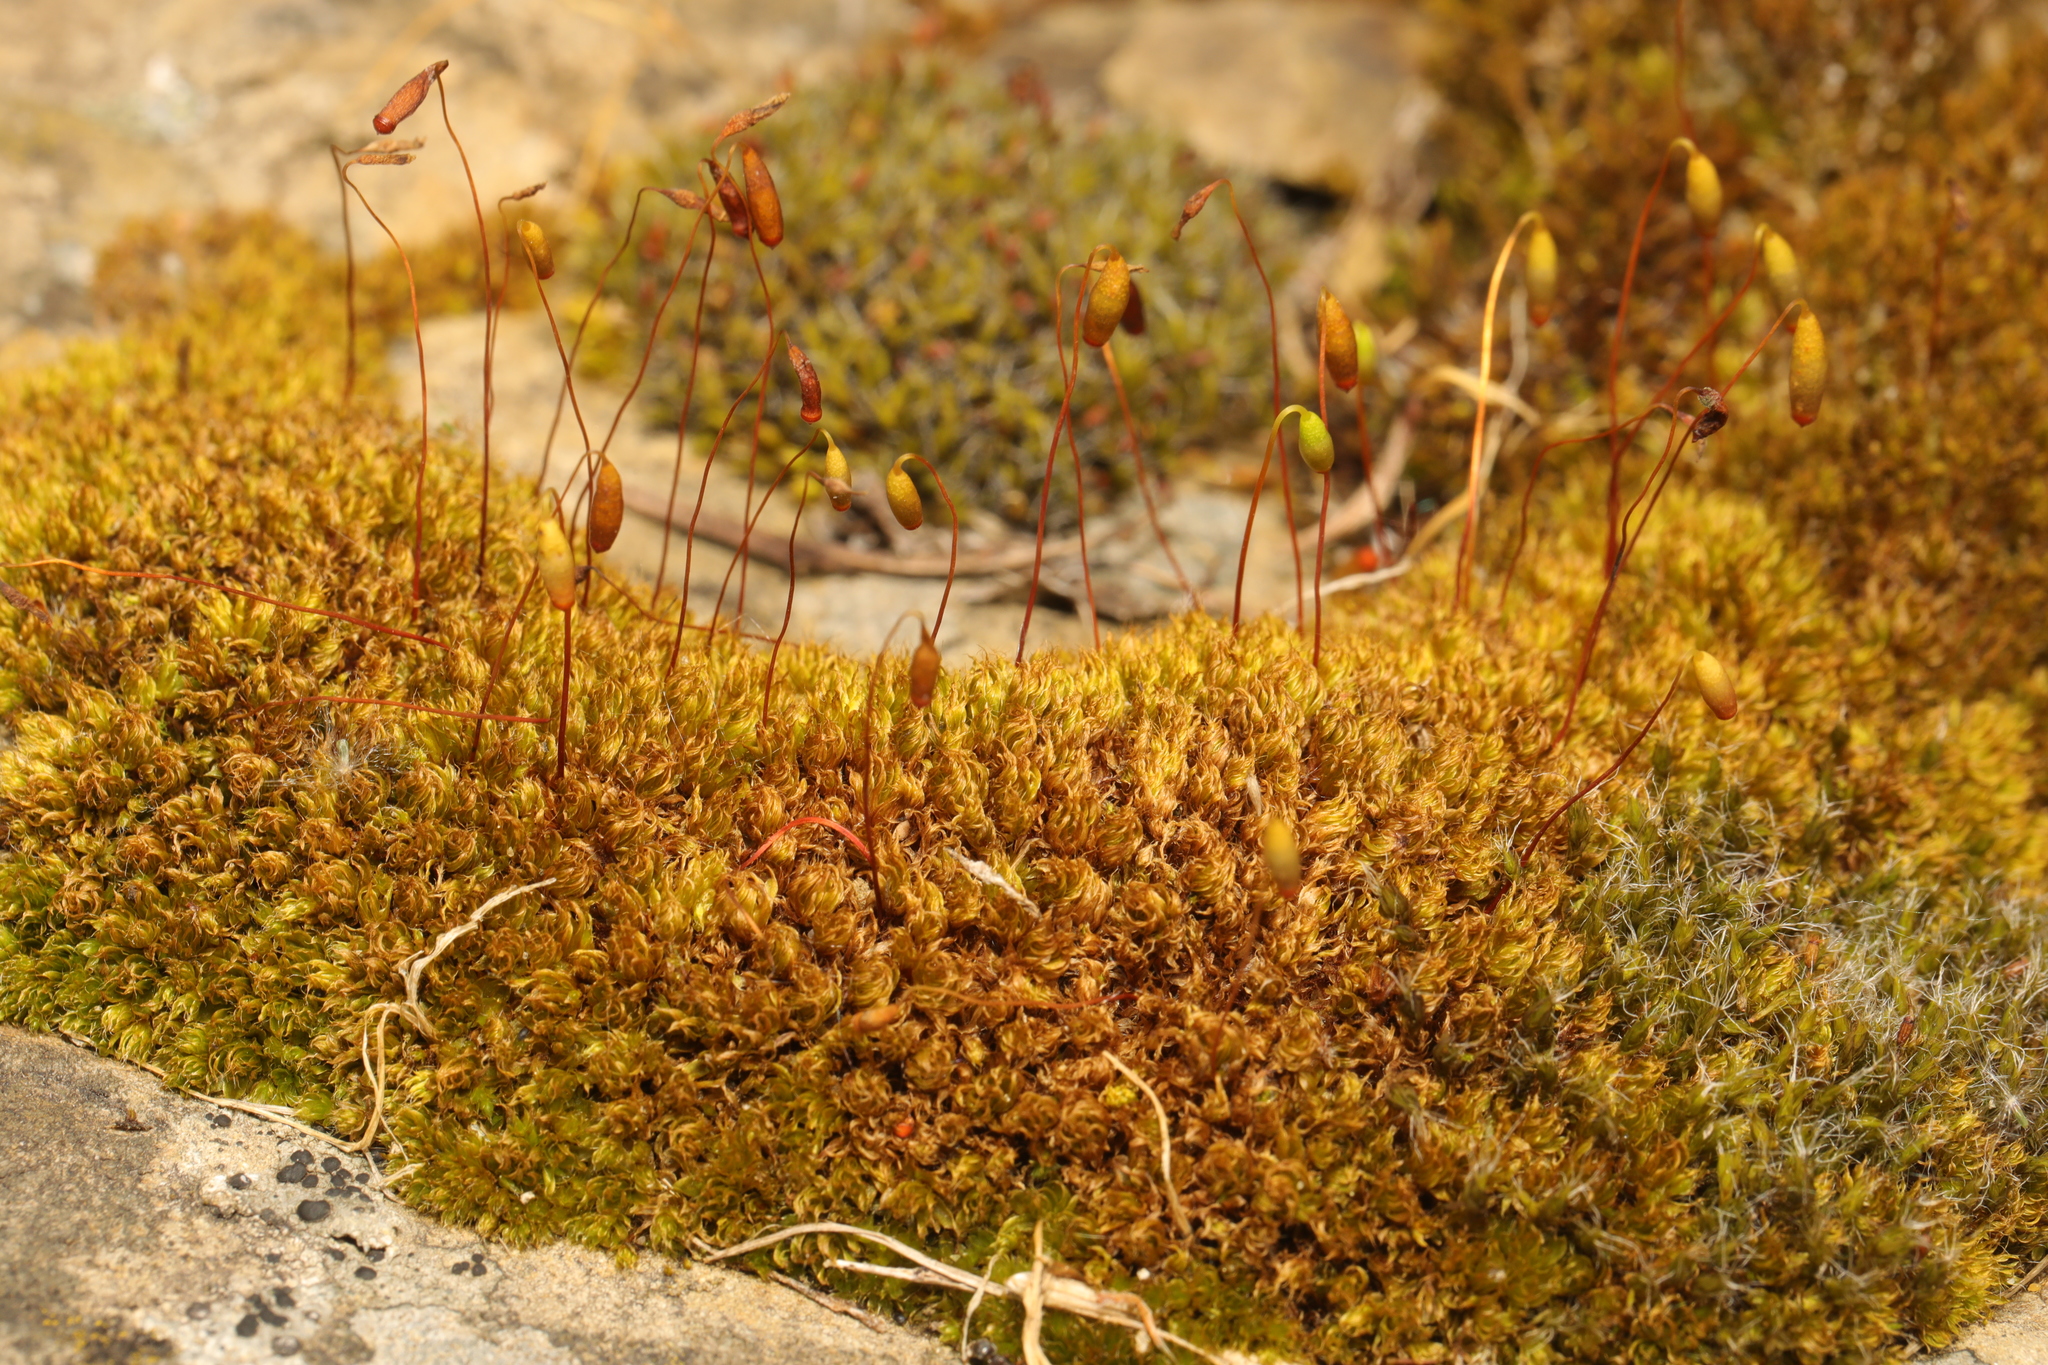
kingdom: Plantae
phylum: Bryophyta
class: Bryopsida
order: Bryales
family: Bryaceae
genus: Rosulabryum
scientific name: Rosulabryum capillare
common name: Capillary thread-moss
